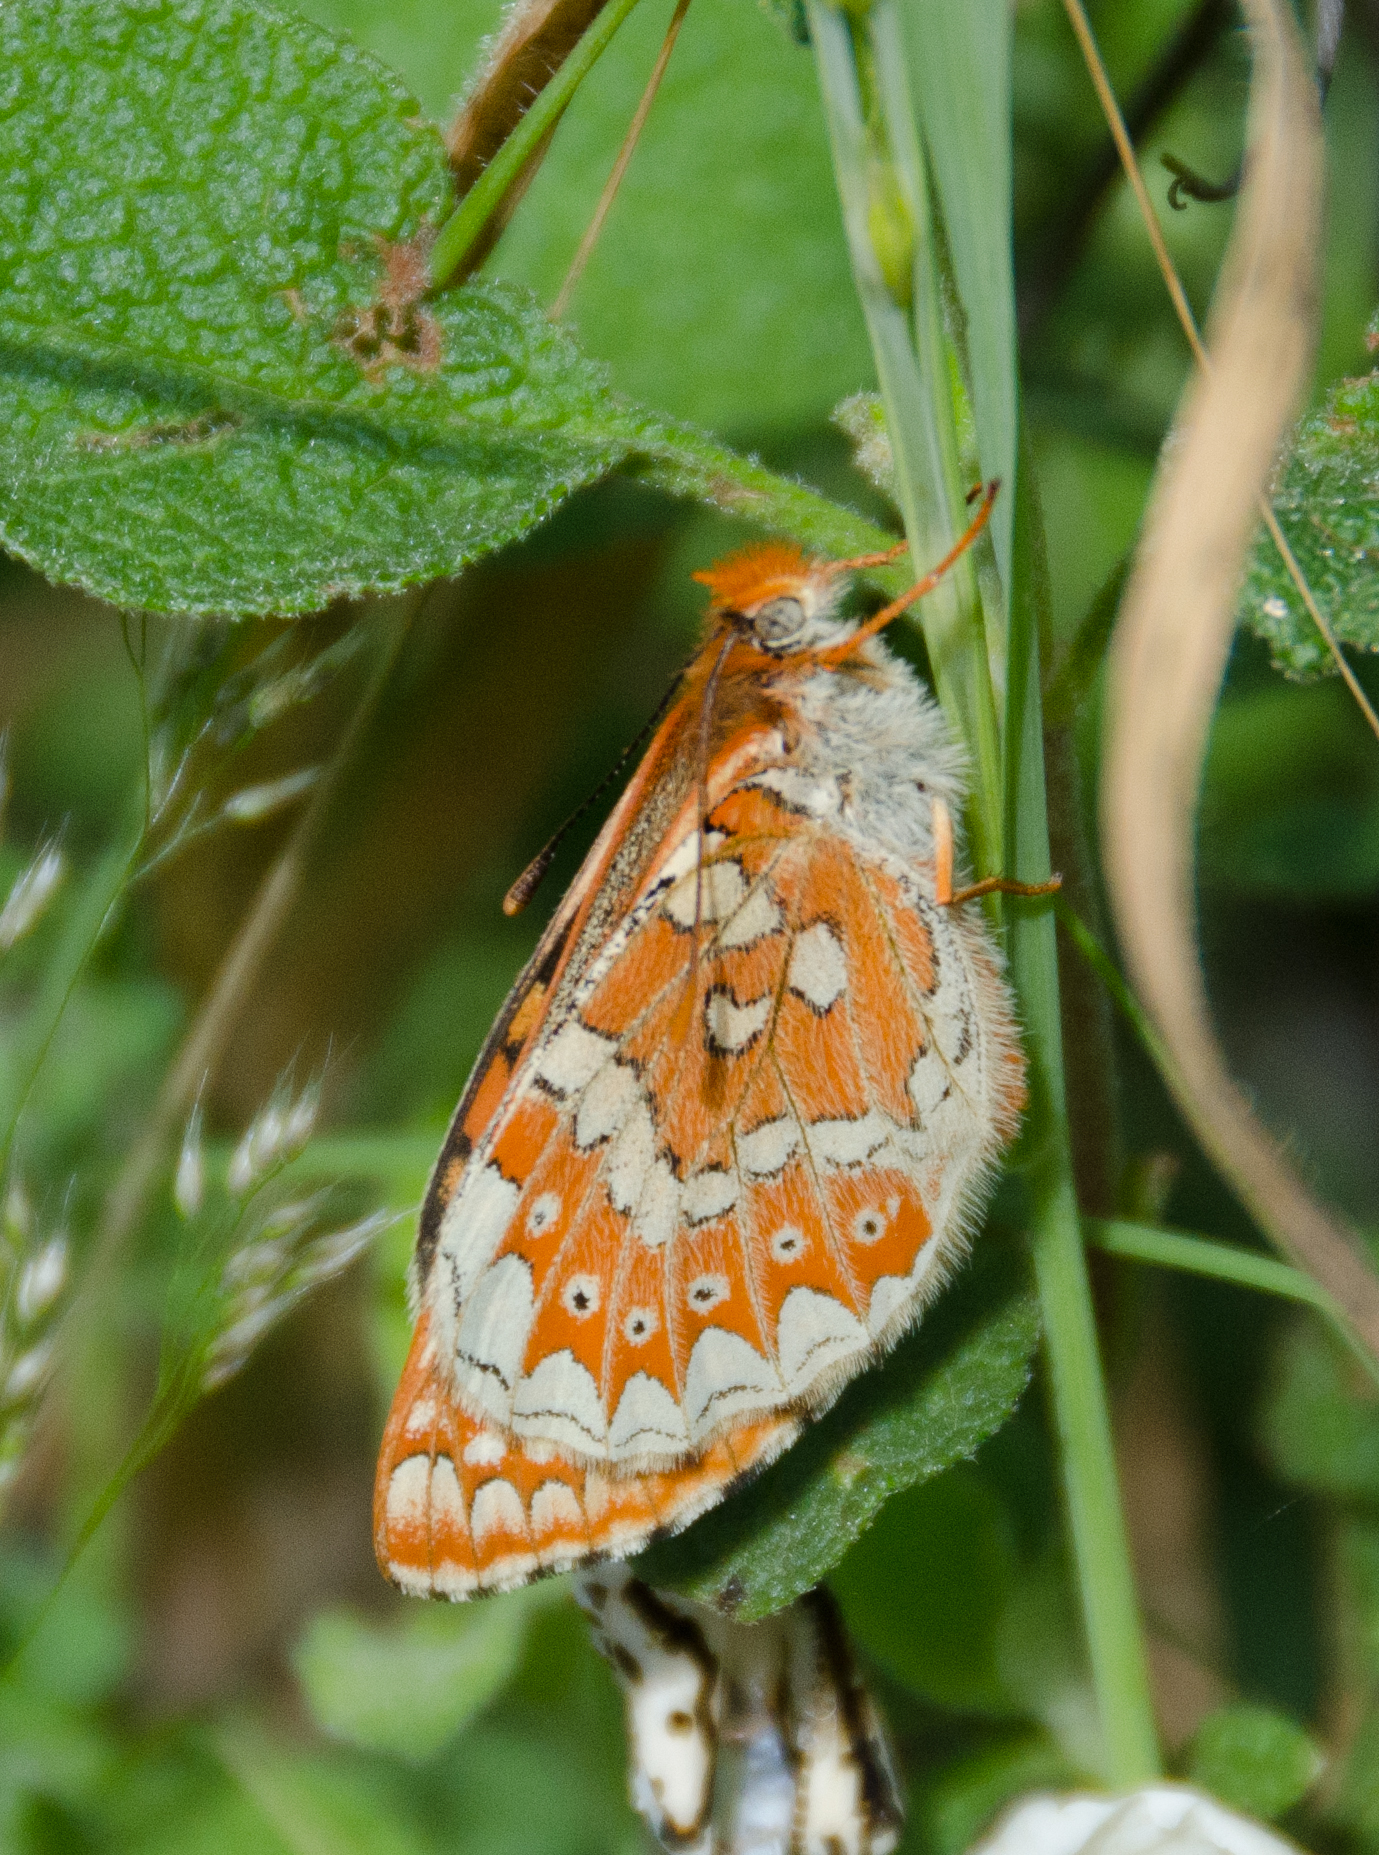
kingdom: Animalia
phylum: Arthropoda
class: Insecta
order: Lepidoptera
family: Nymphalidae
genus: Euphydryas
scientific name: Euphydryas aurinia
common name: Marsh fritillary
